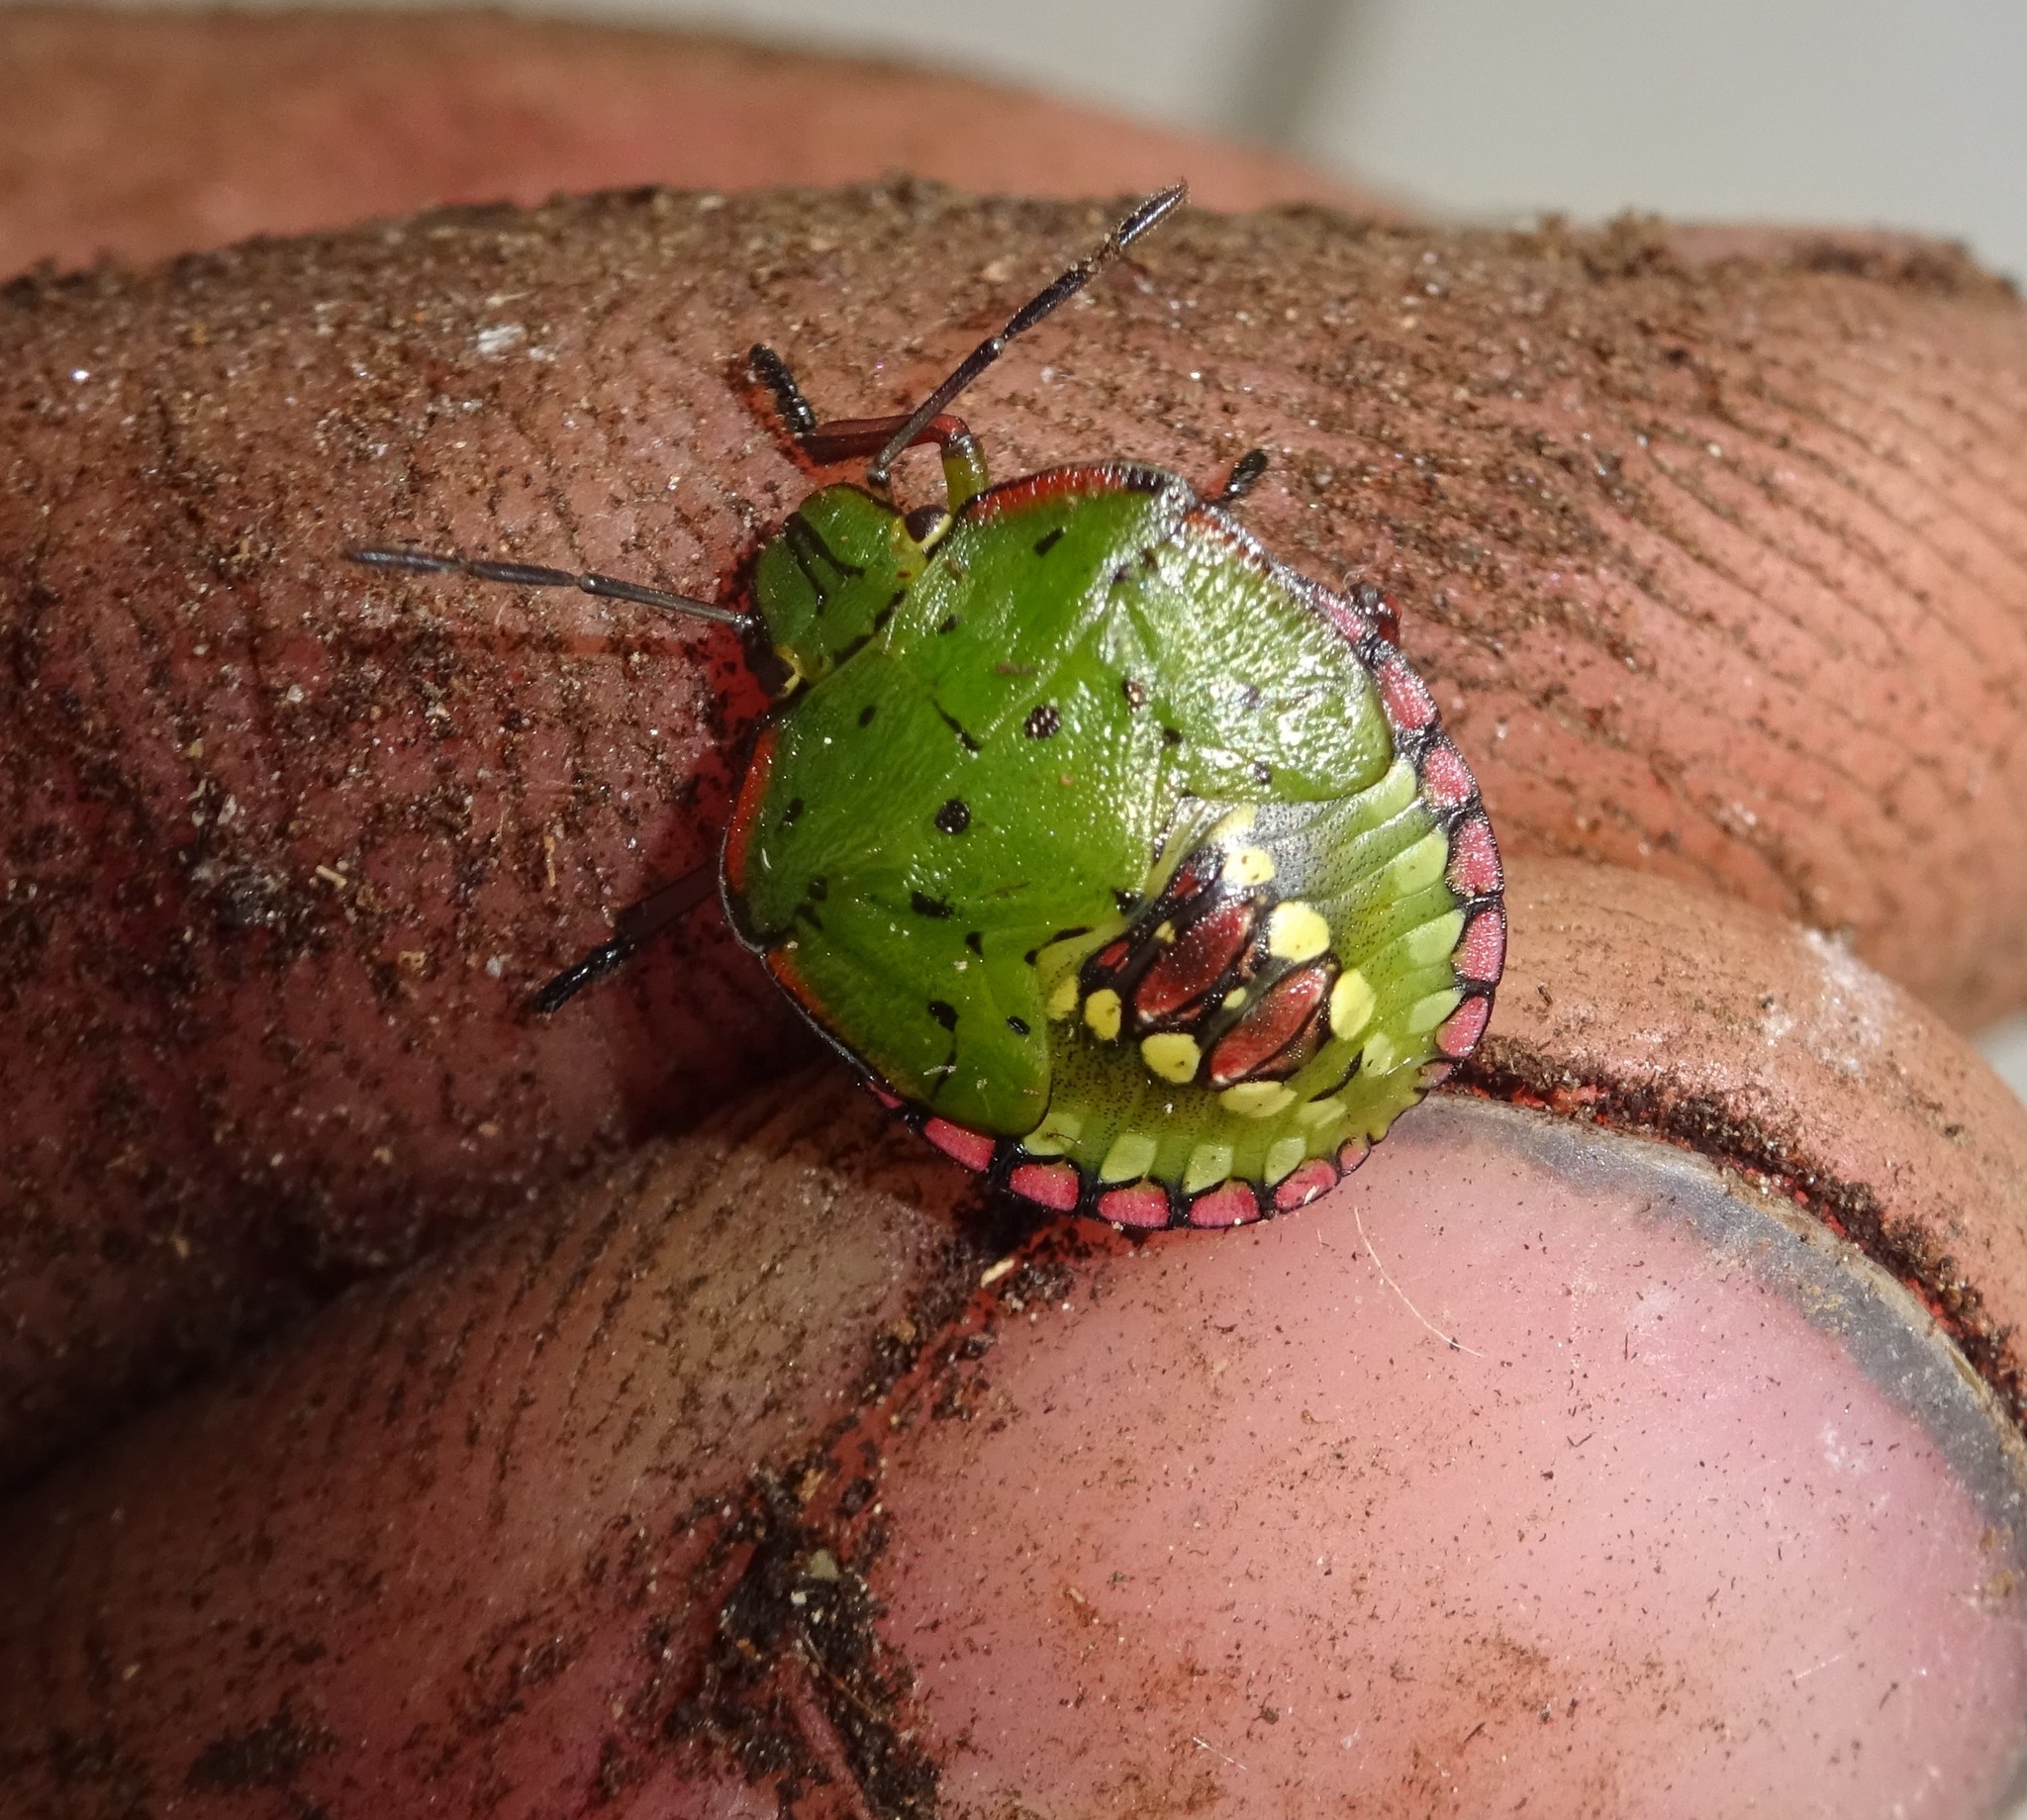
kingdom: Animalia
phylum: Arthropoda
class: Insecta
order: Hemiptera
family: Pentatomidae
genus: Nezara
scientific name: Nezara viridula
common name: Southern green stink bug
